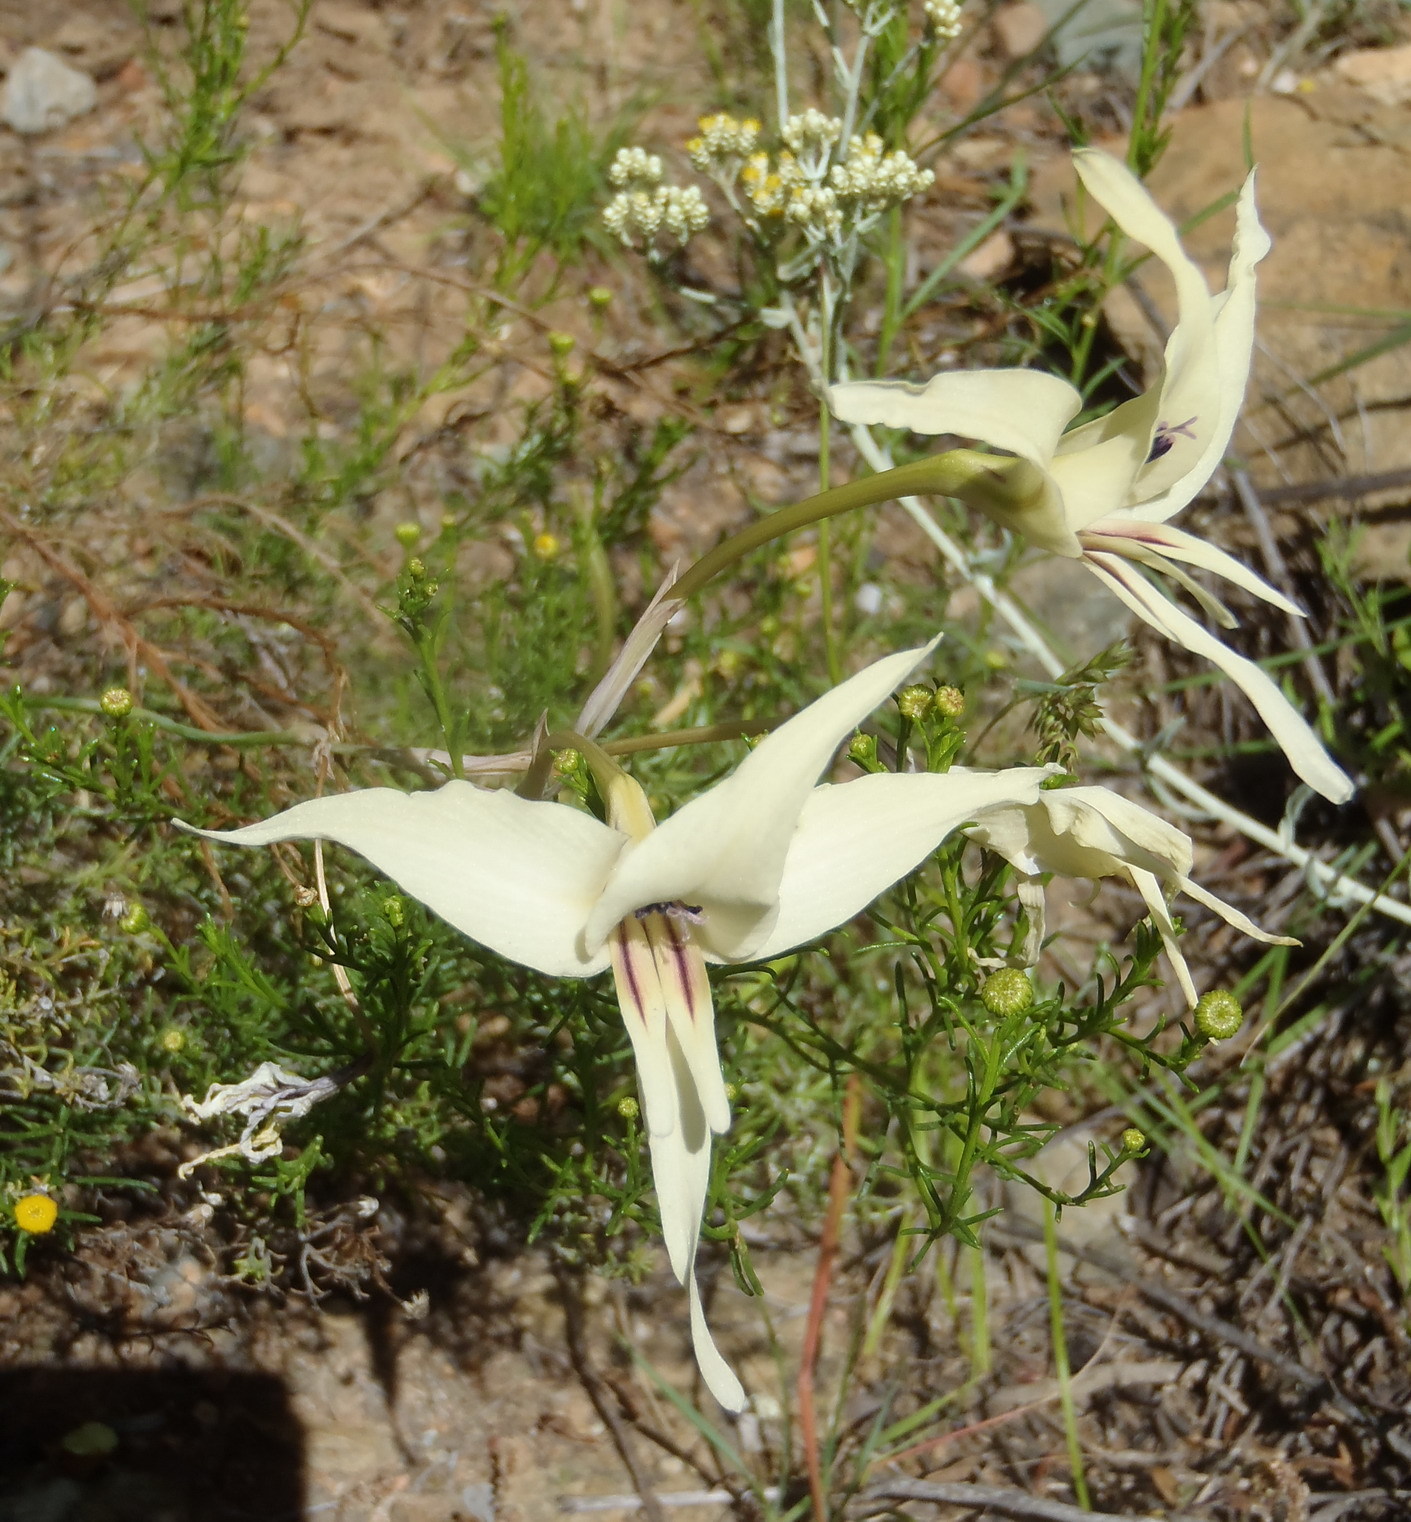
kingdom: Plantae
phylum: Tracheophyta
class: Liliopsida
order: Asparagales
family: Iridaceae
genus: Gladiolus
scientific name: Gladiolus leptosiphon
